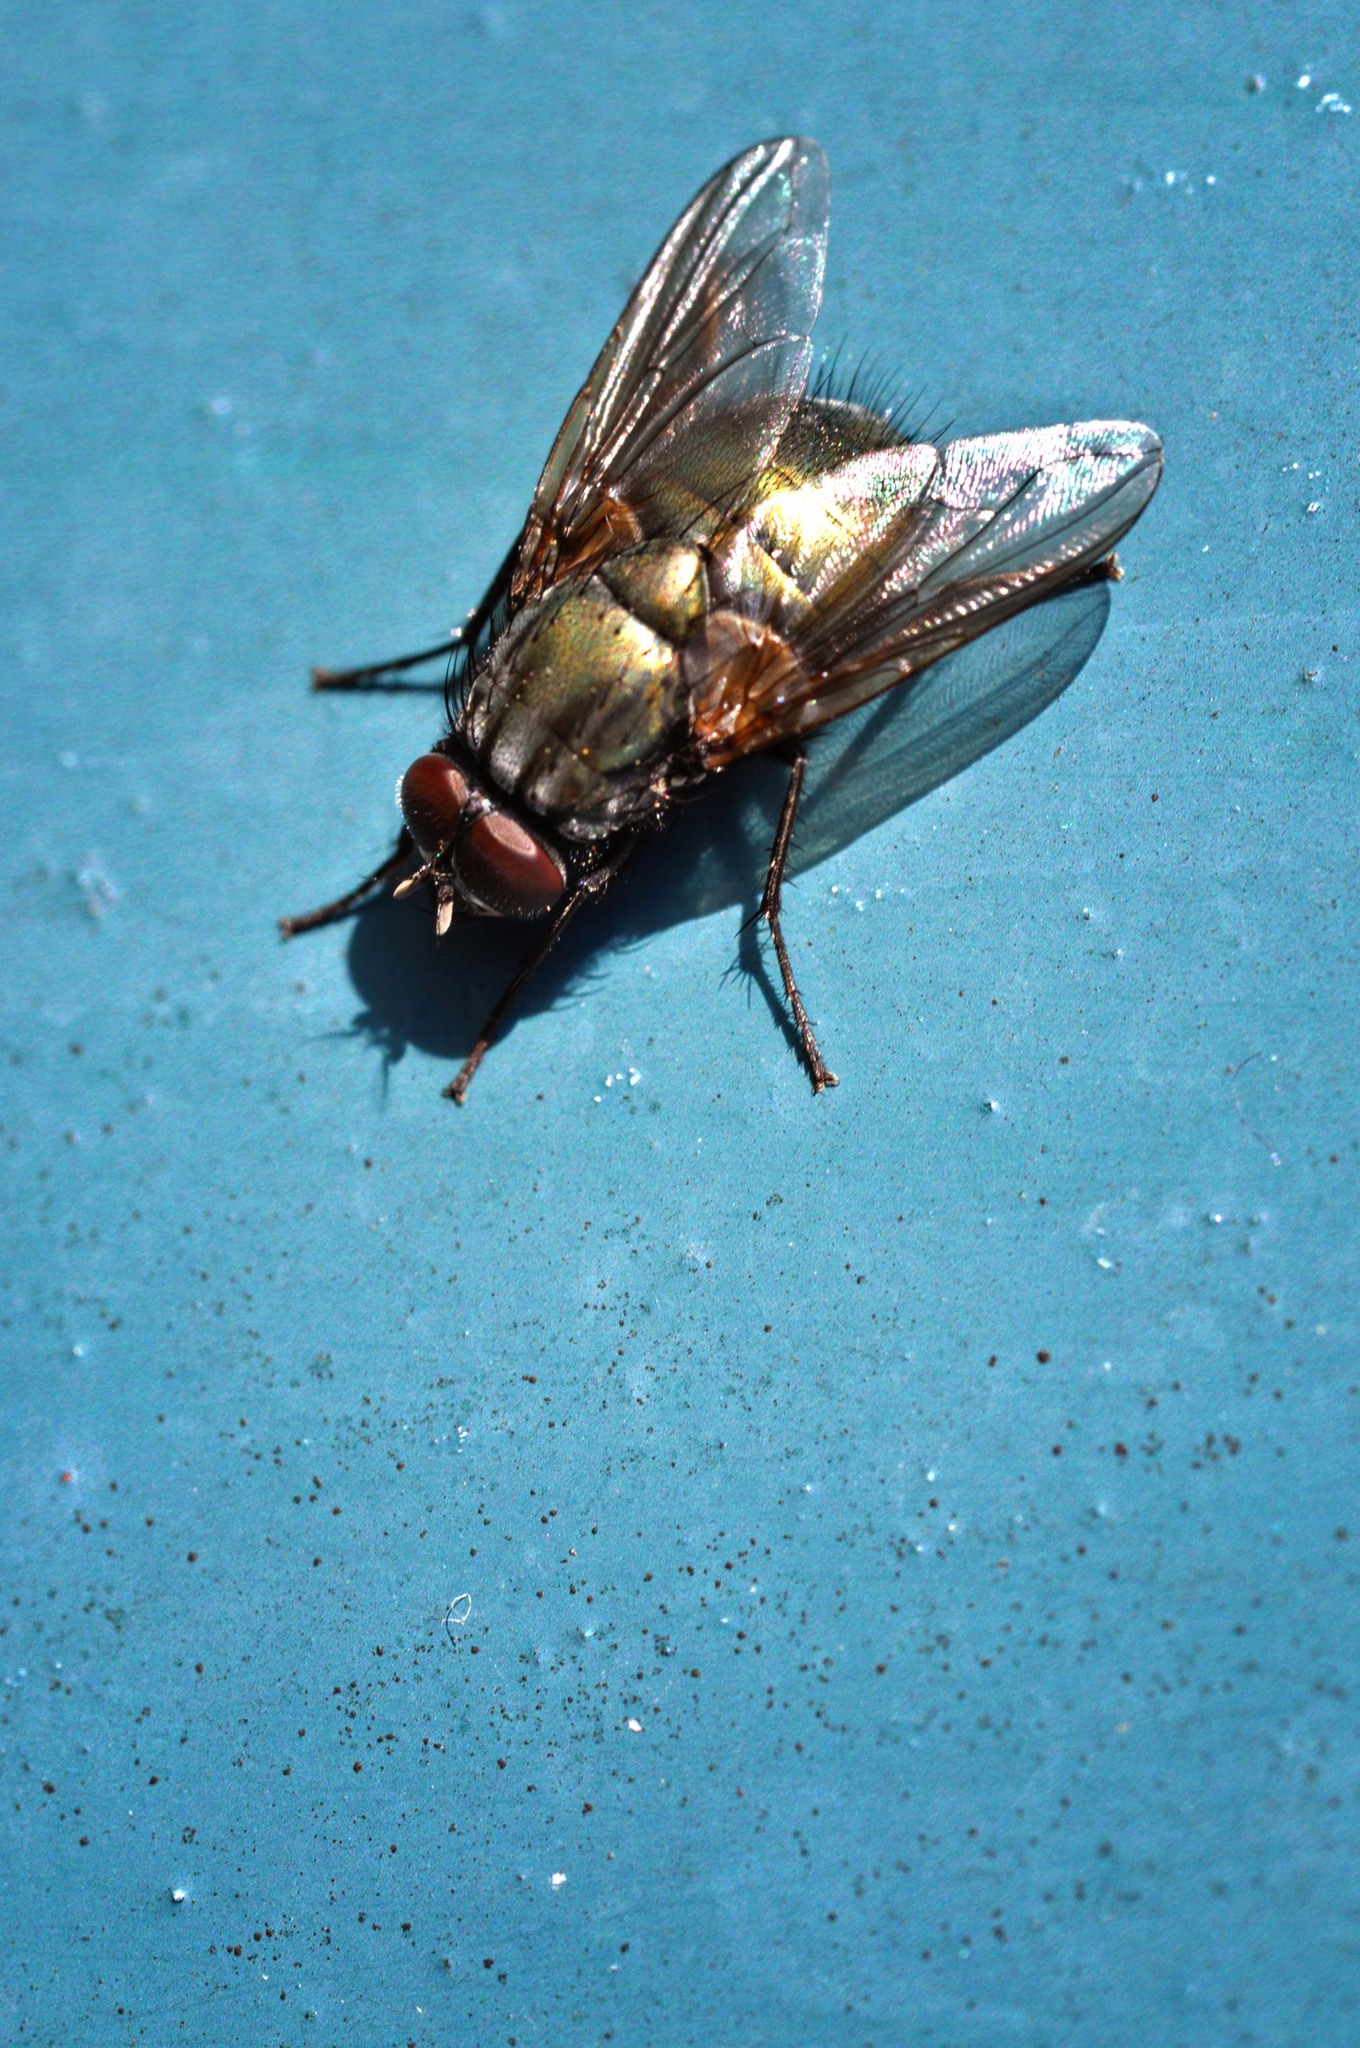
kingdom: Animalia
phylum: Arthropoda
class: Insecta
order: Diptera
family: Muscidae
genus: Dasyphora
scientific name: Dasyphora cyanella
